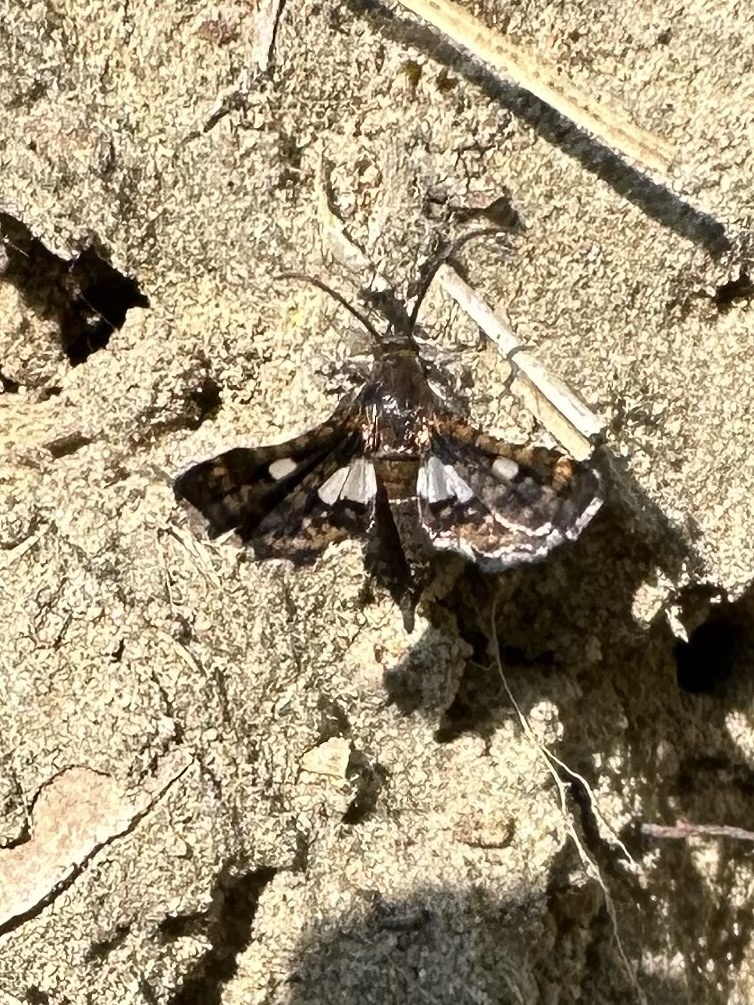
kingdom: Animalia
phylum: Arthropoda
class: Insecta
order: Lepidoptera
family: Thyrididae
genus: Thyris
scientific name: Thyris maculata
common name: Spotted thyris moth
